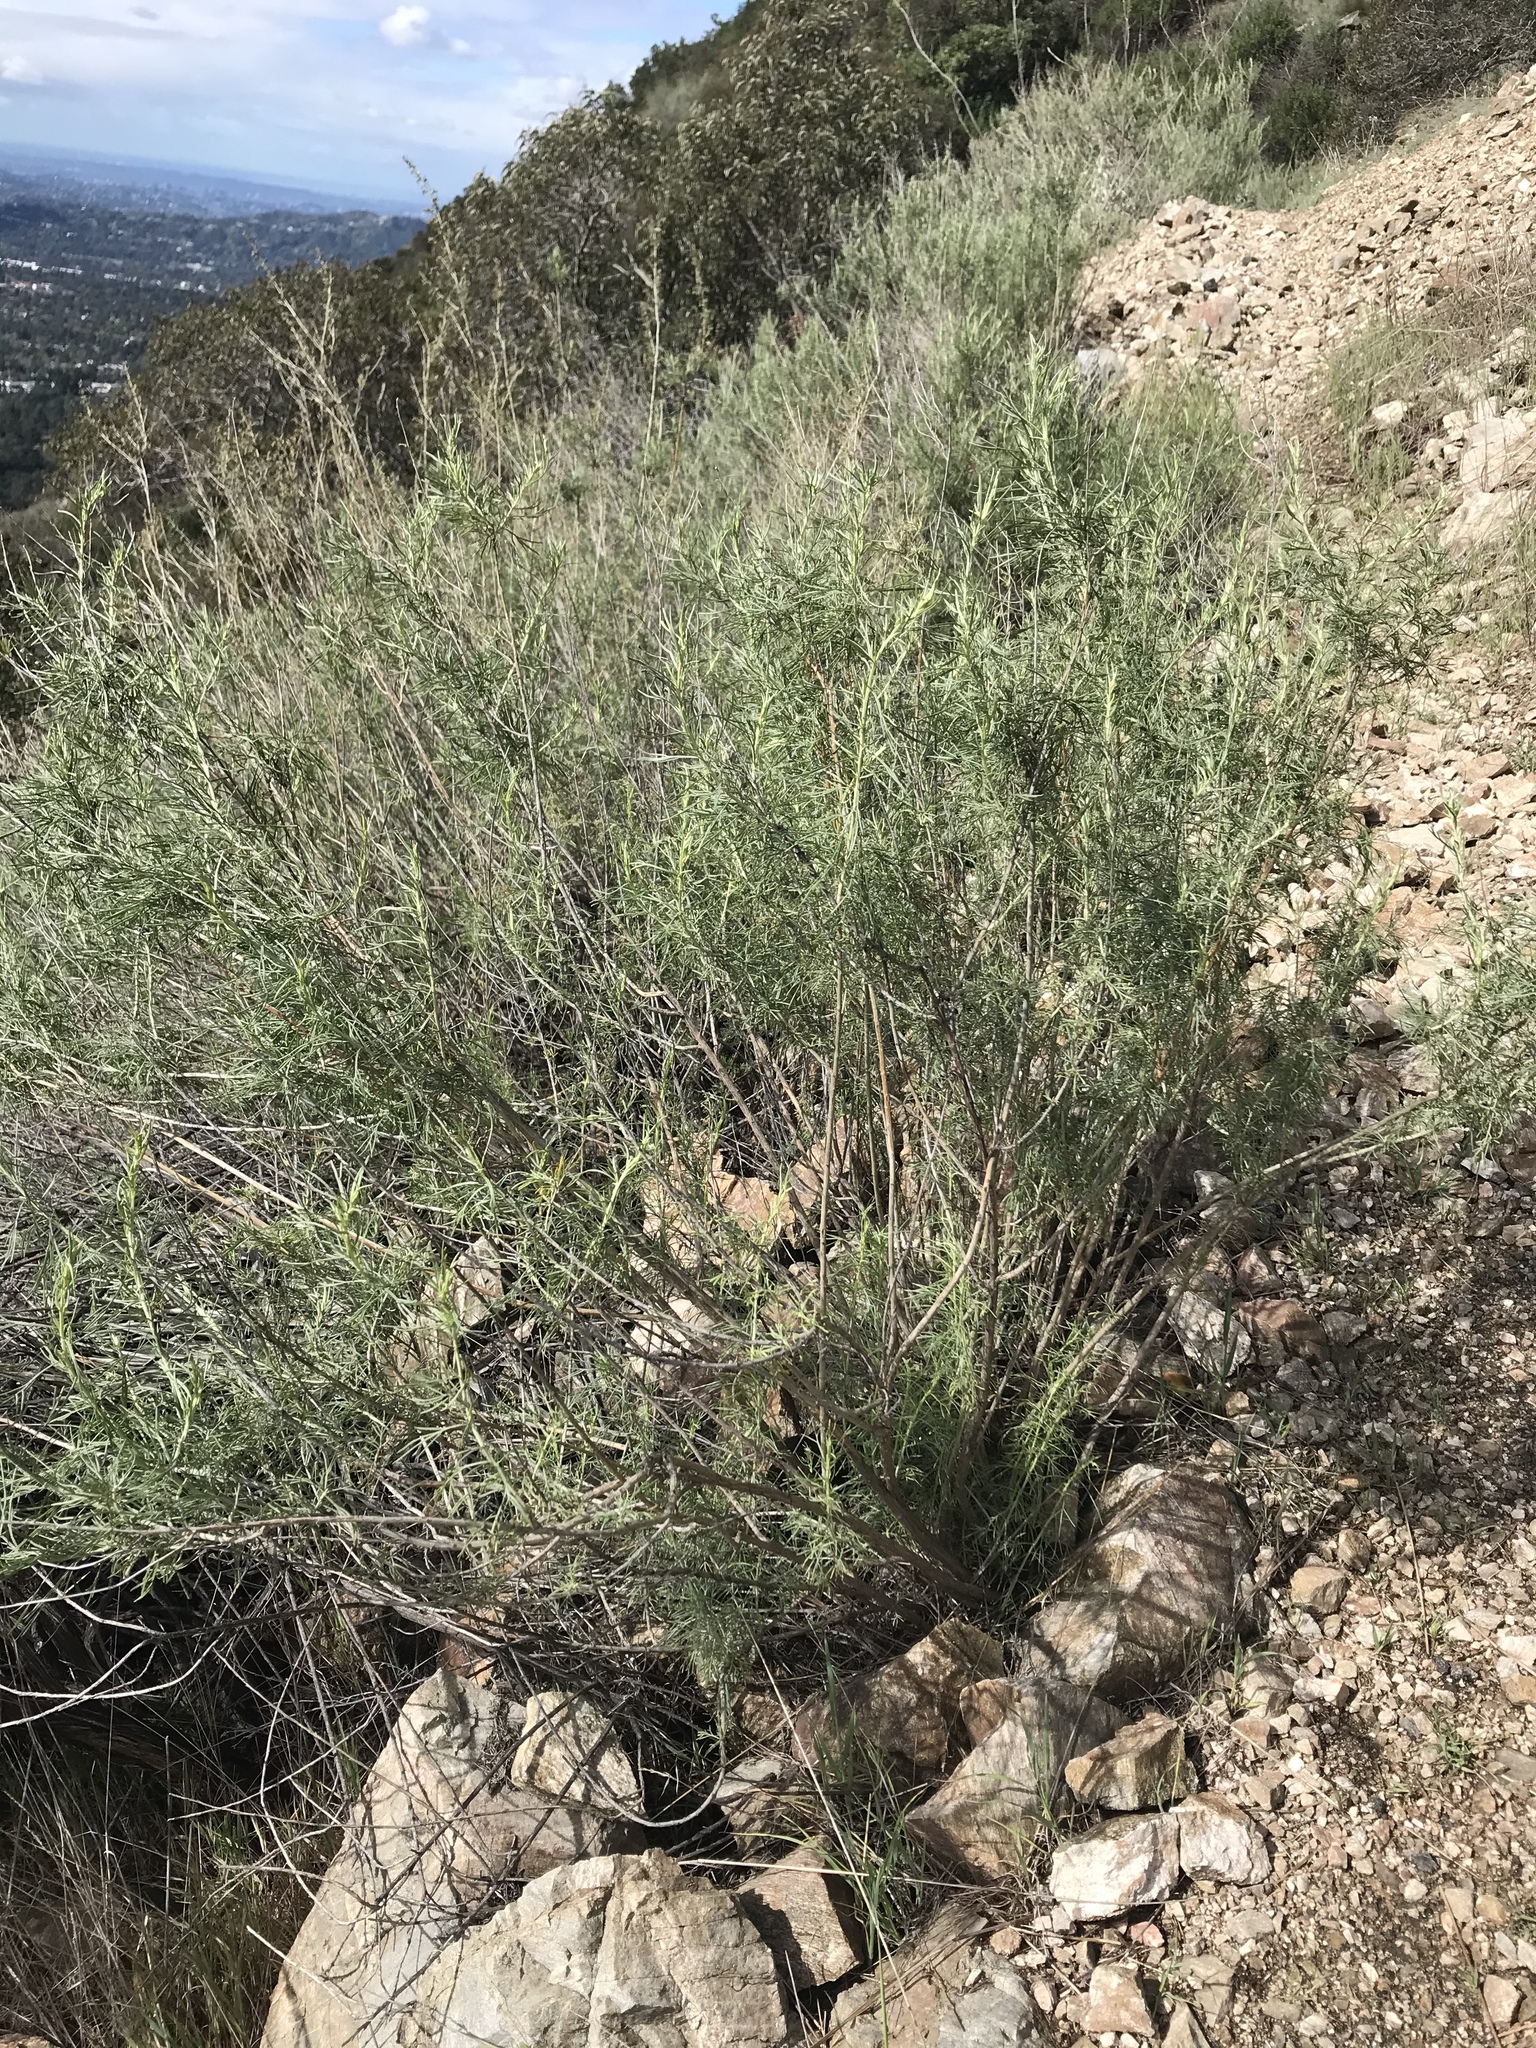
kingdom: Plantae
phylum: Tracheophyta
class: Magnoliopsida
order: Asterales
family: Asteraceae
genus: Artemisia
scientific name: Artemisia californica
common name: California sagebrush
